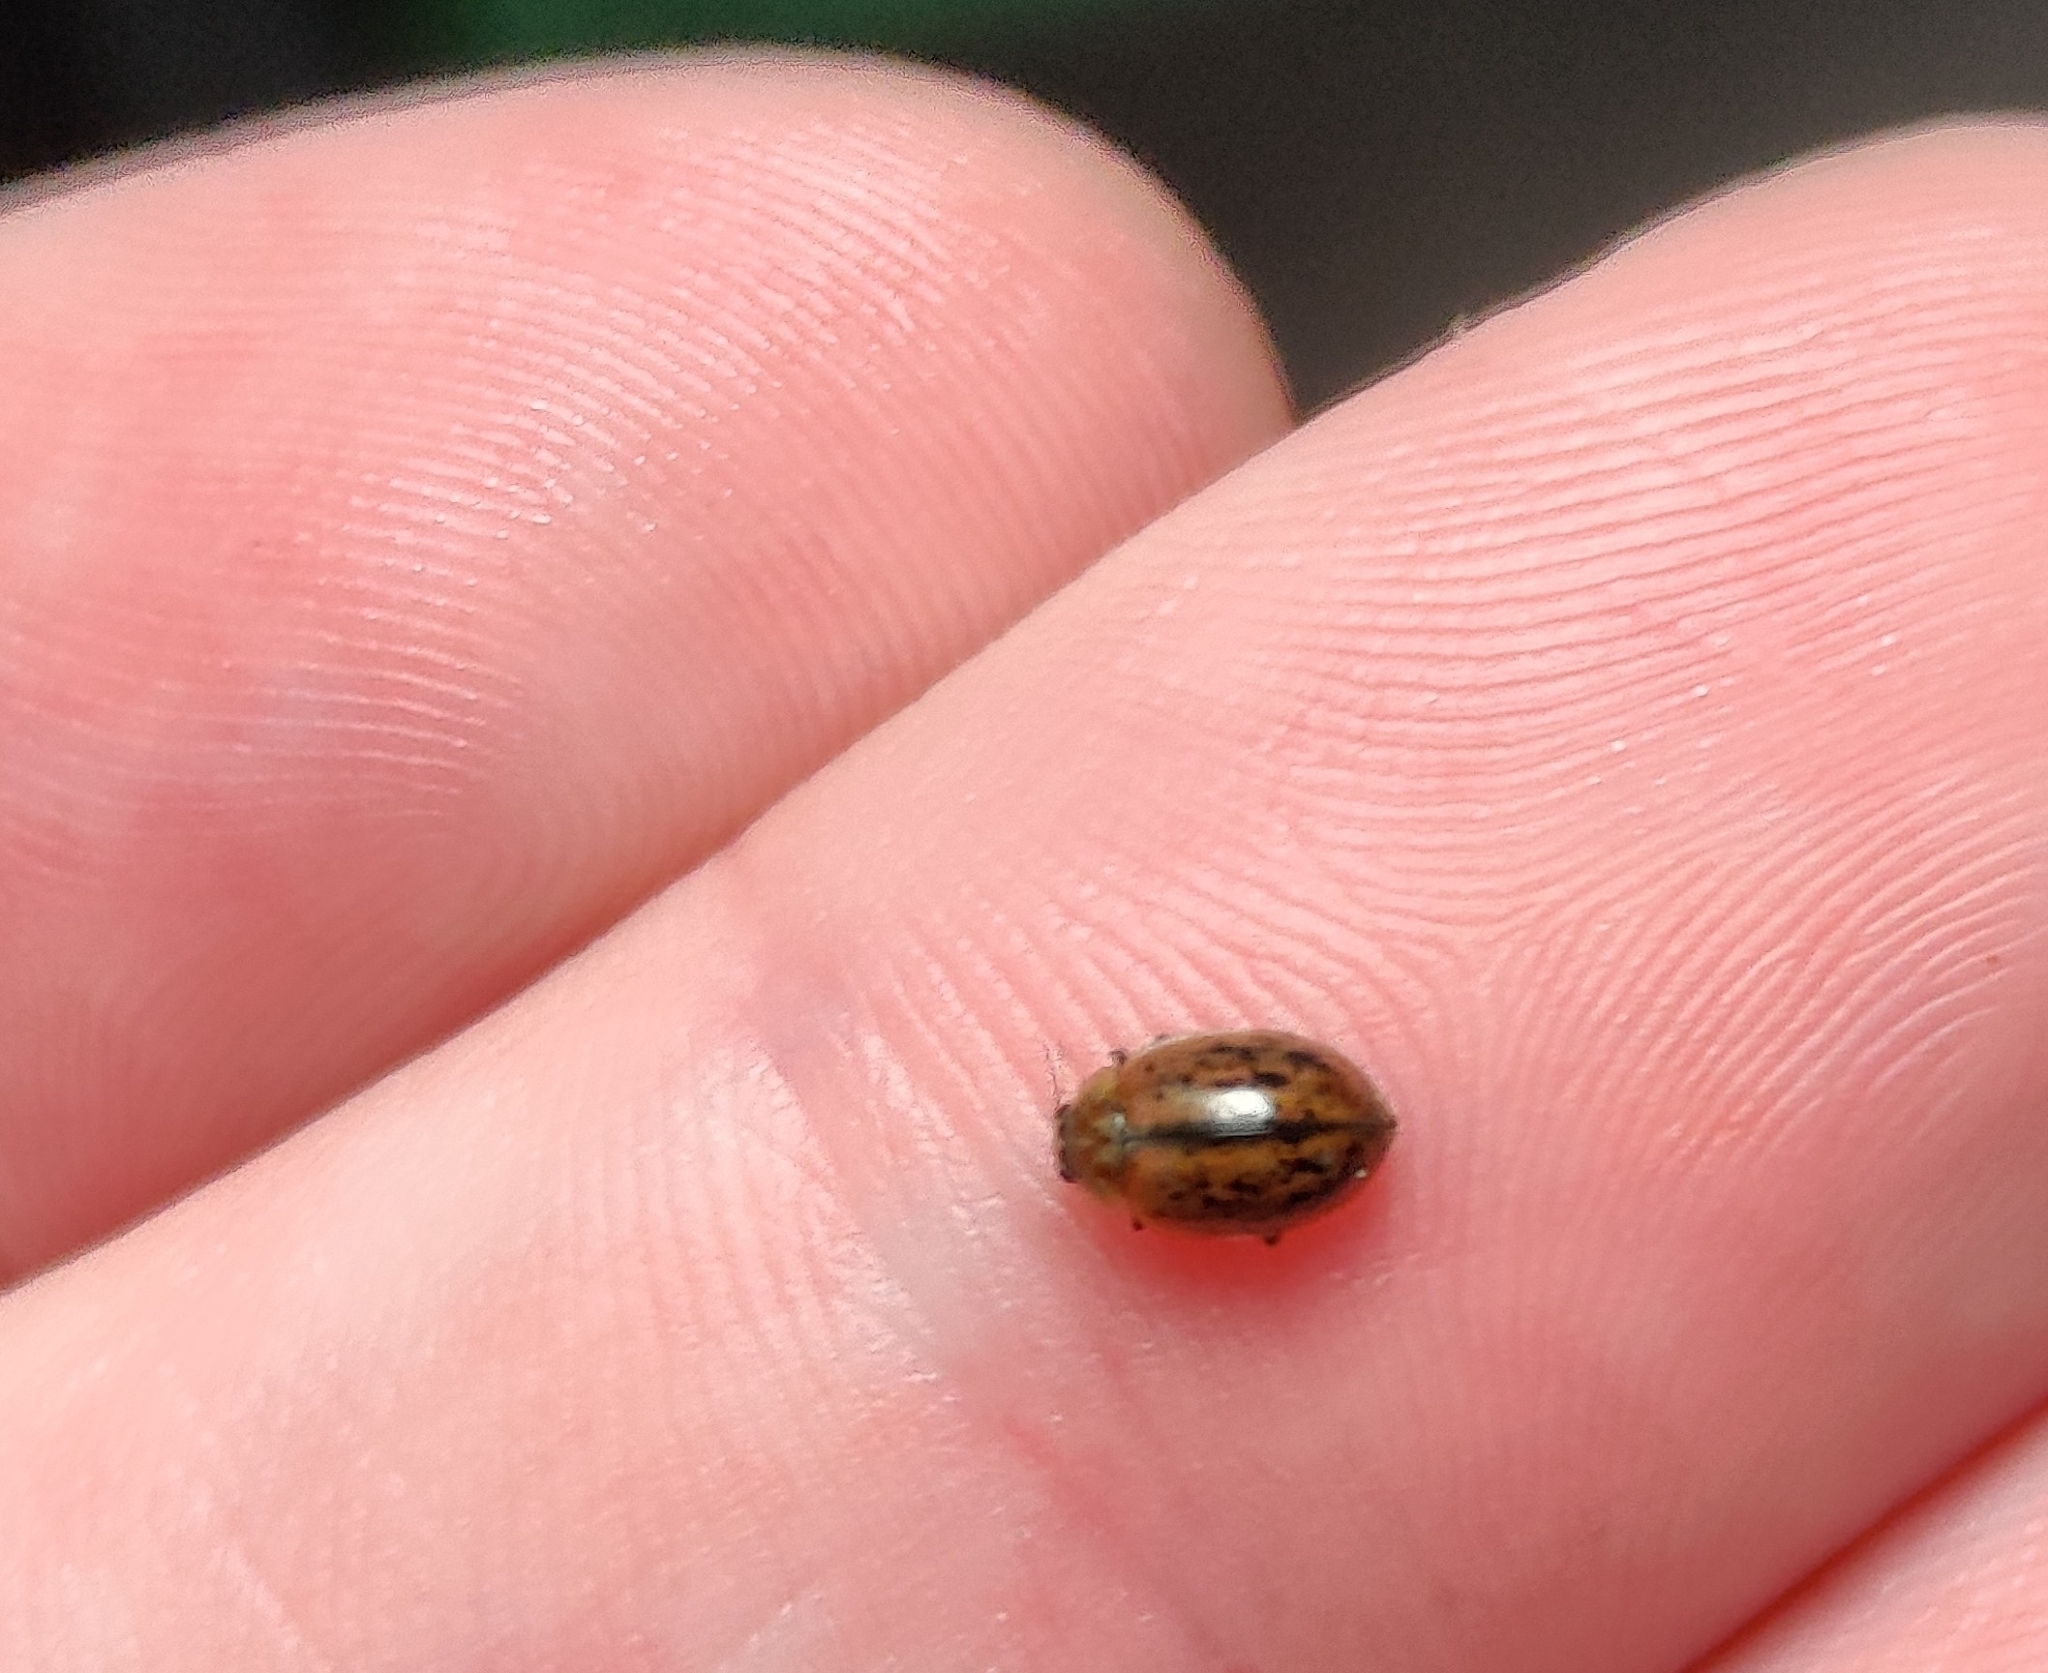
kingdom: Animalia
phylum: Arthropoda
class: Insecta
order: Coleoptera
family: Coccinellidae
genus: Aphidecta
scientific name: Aphidecta obliterata
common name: Larch ladybird
